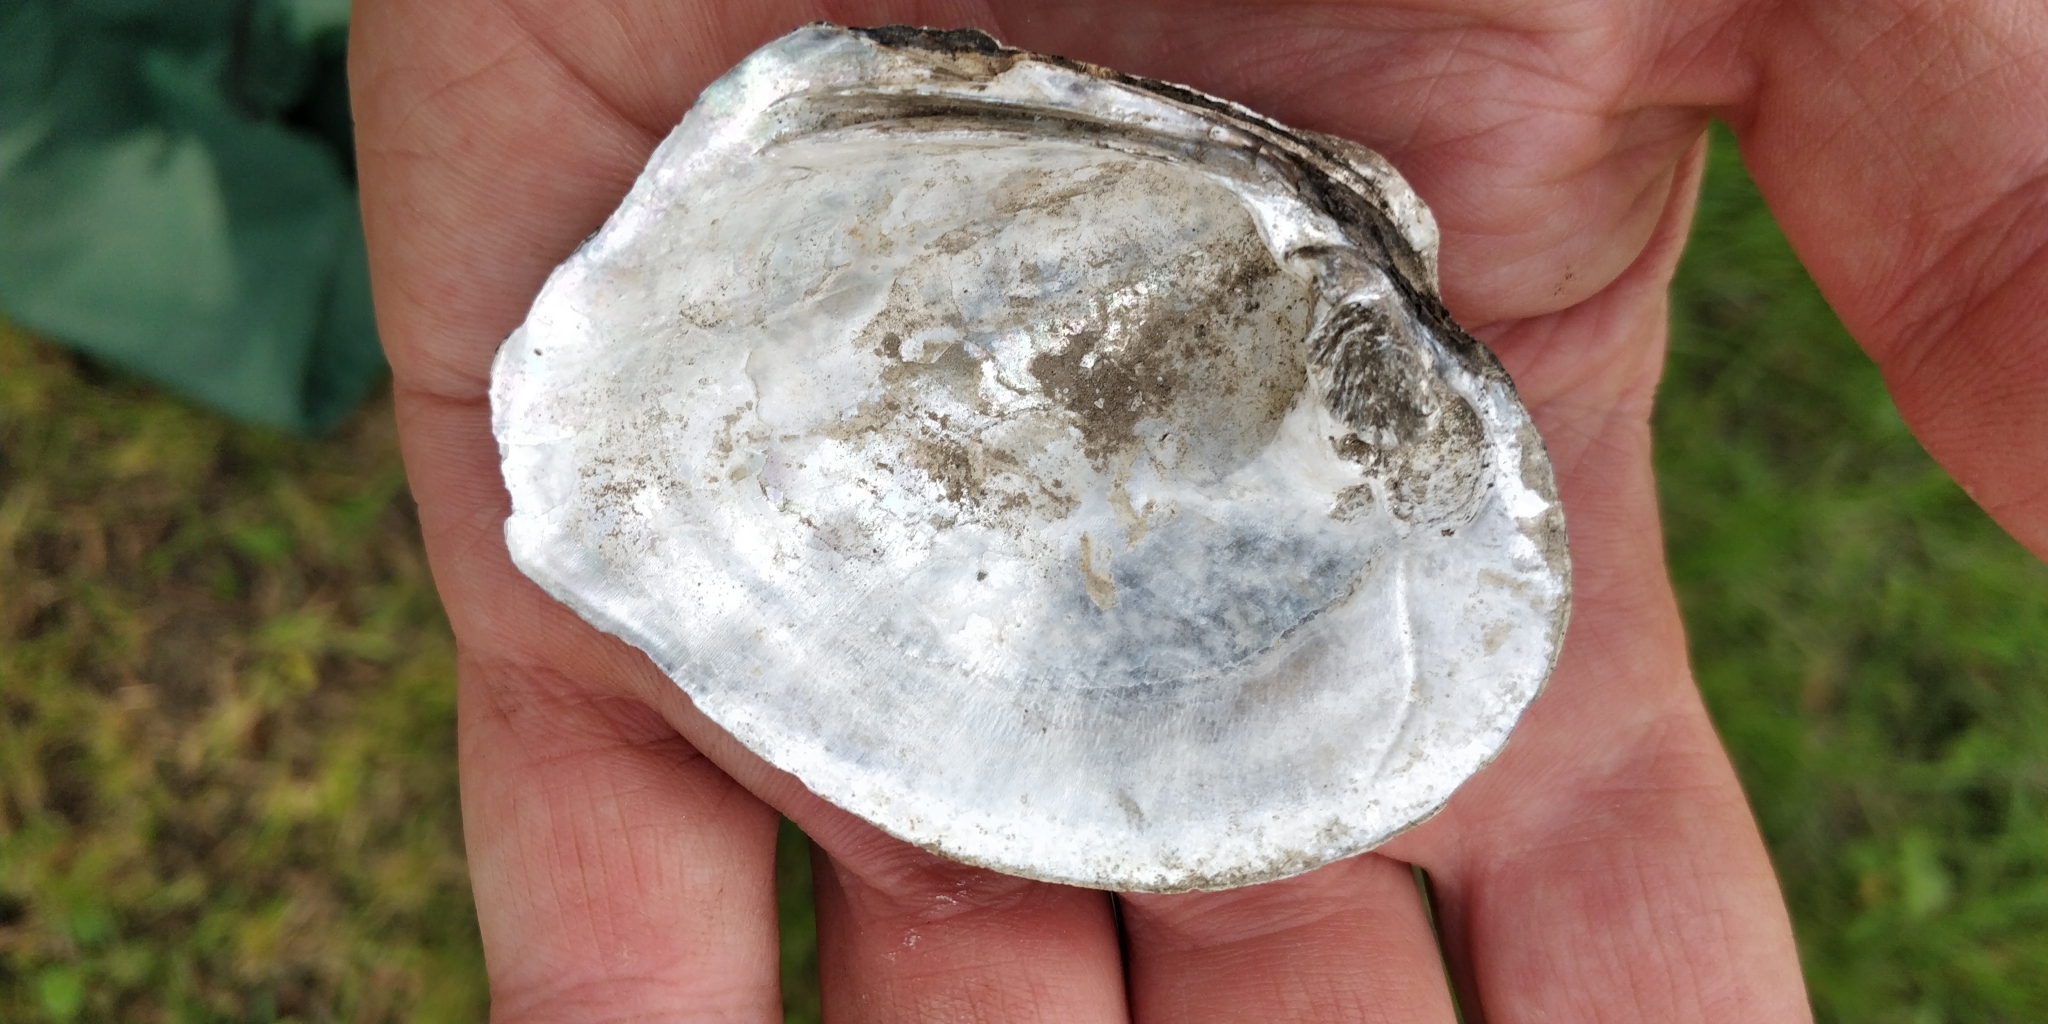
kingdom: Animalia
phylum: Mollusca
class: Bivalvia
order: Unionida
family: Unionidae
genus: Quadrula
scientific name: Quadrula quadrula
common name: Mapleleaf
